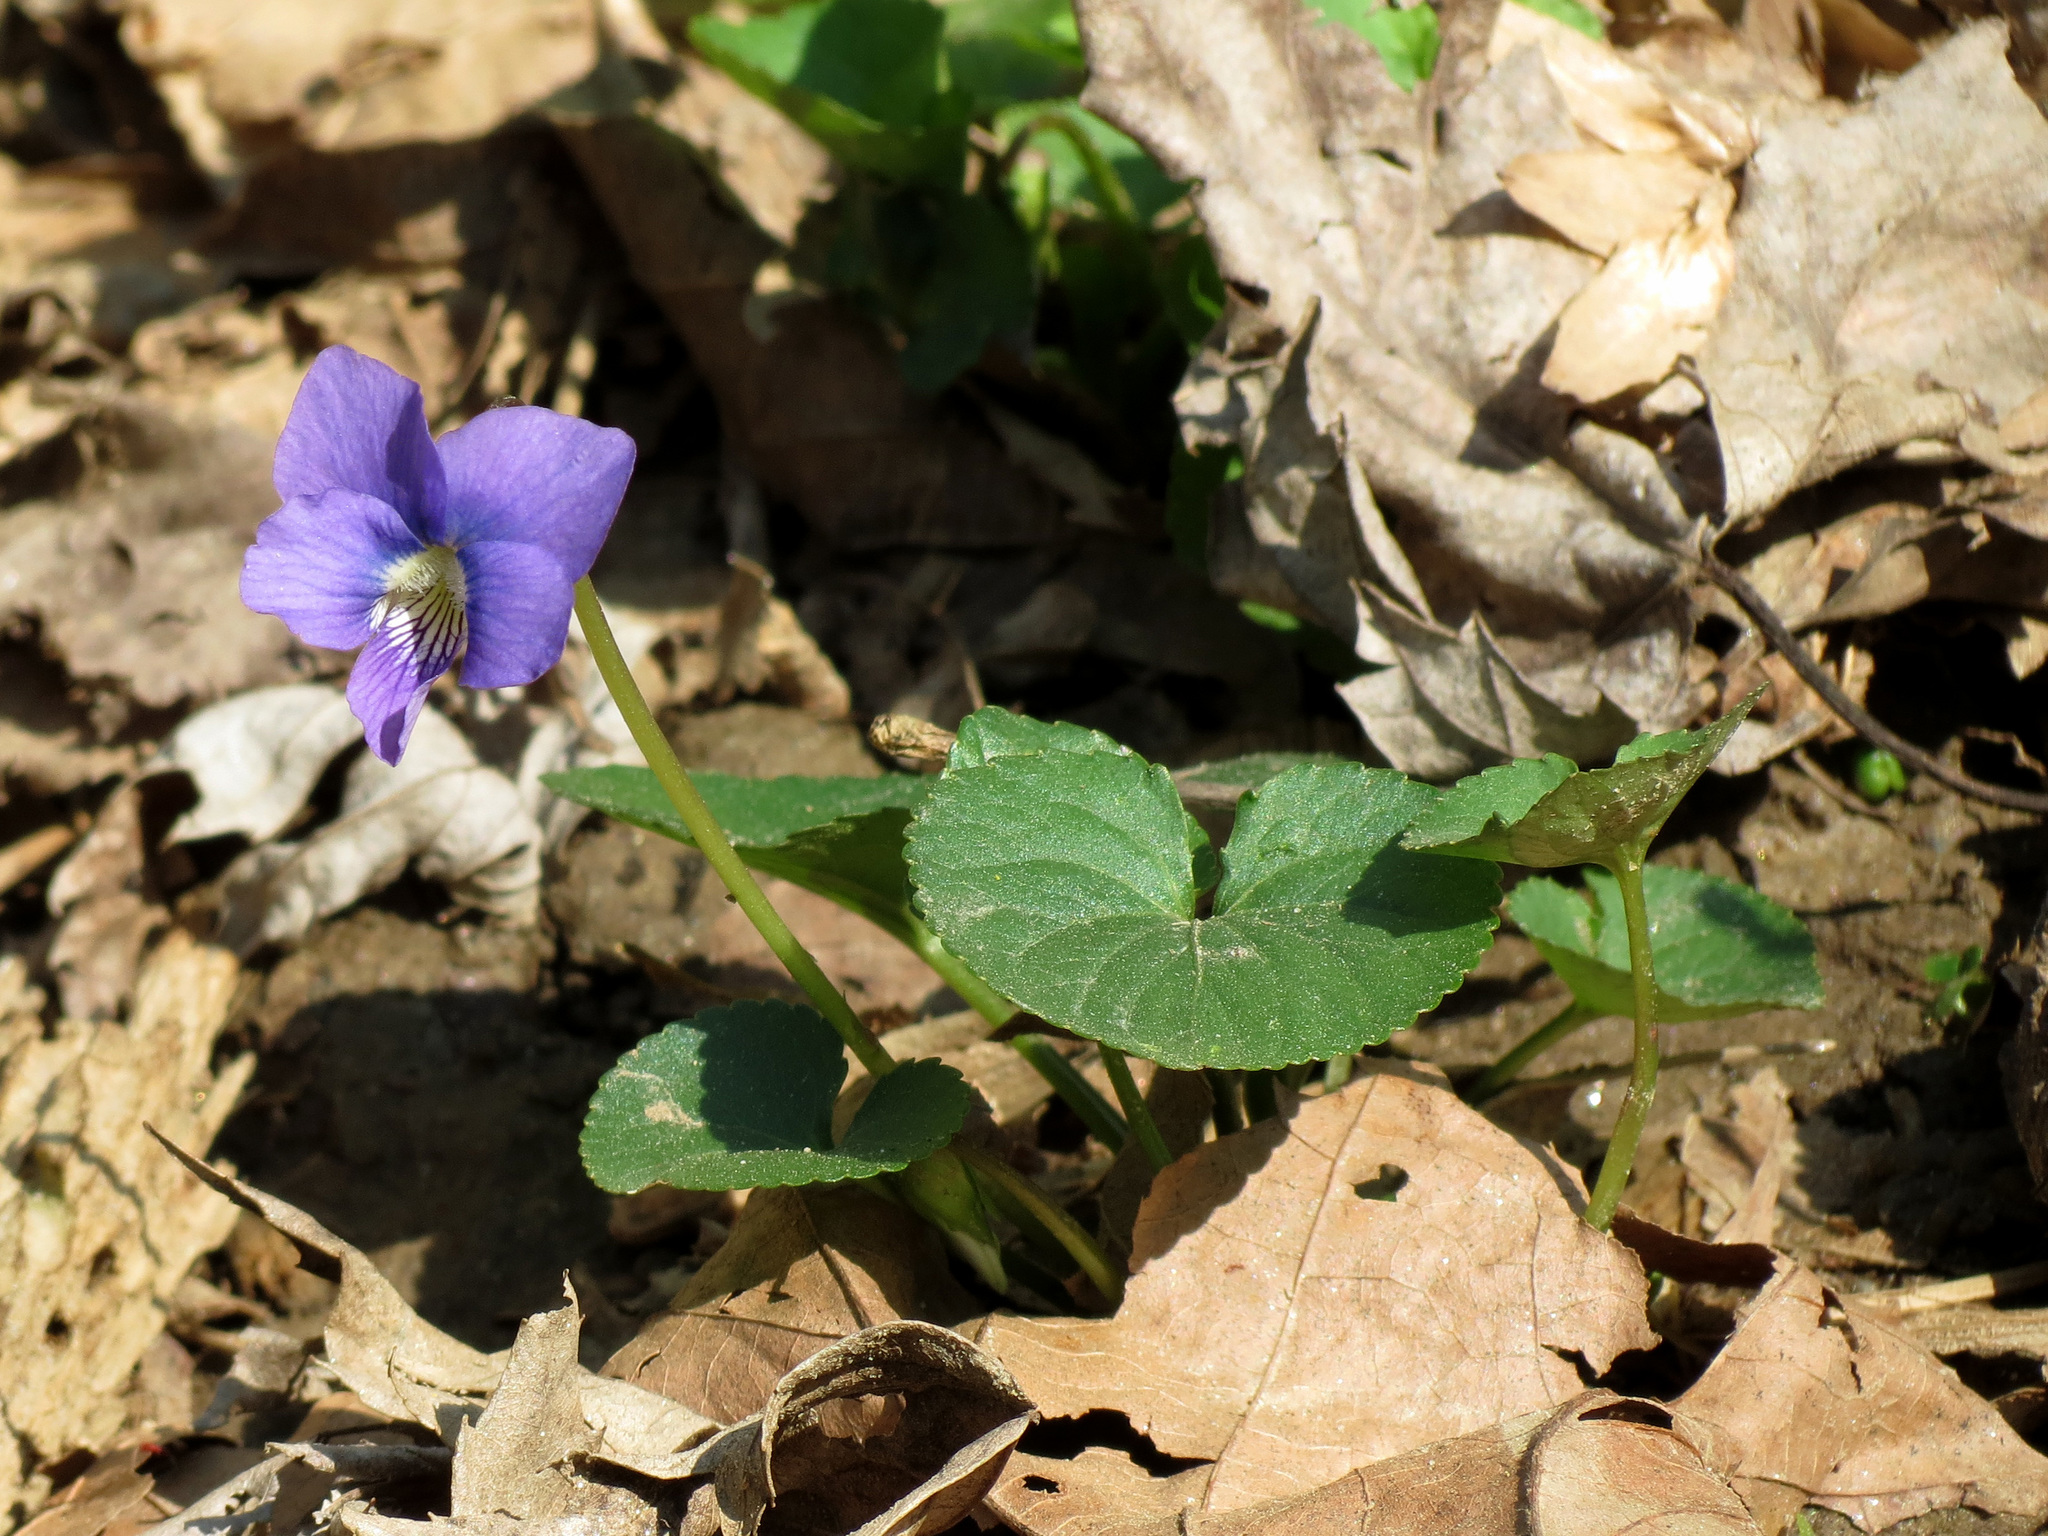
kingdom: Plantae
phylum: Tracheophyta
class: Magnoliopsida
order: Malpighiales
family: Violaceae
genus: Viola
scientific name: Viola sororia
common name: Dooryard violet
